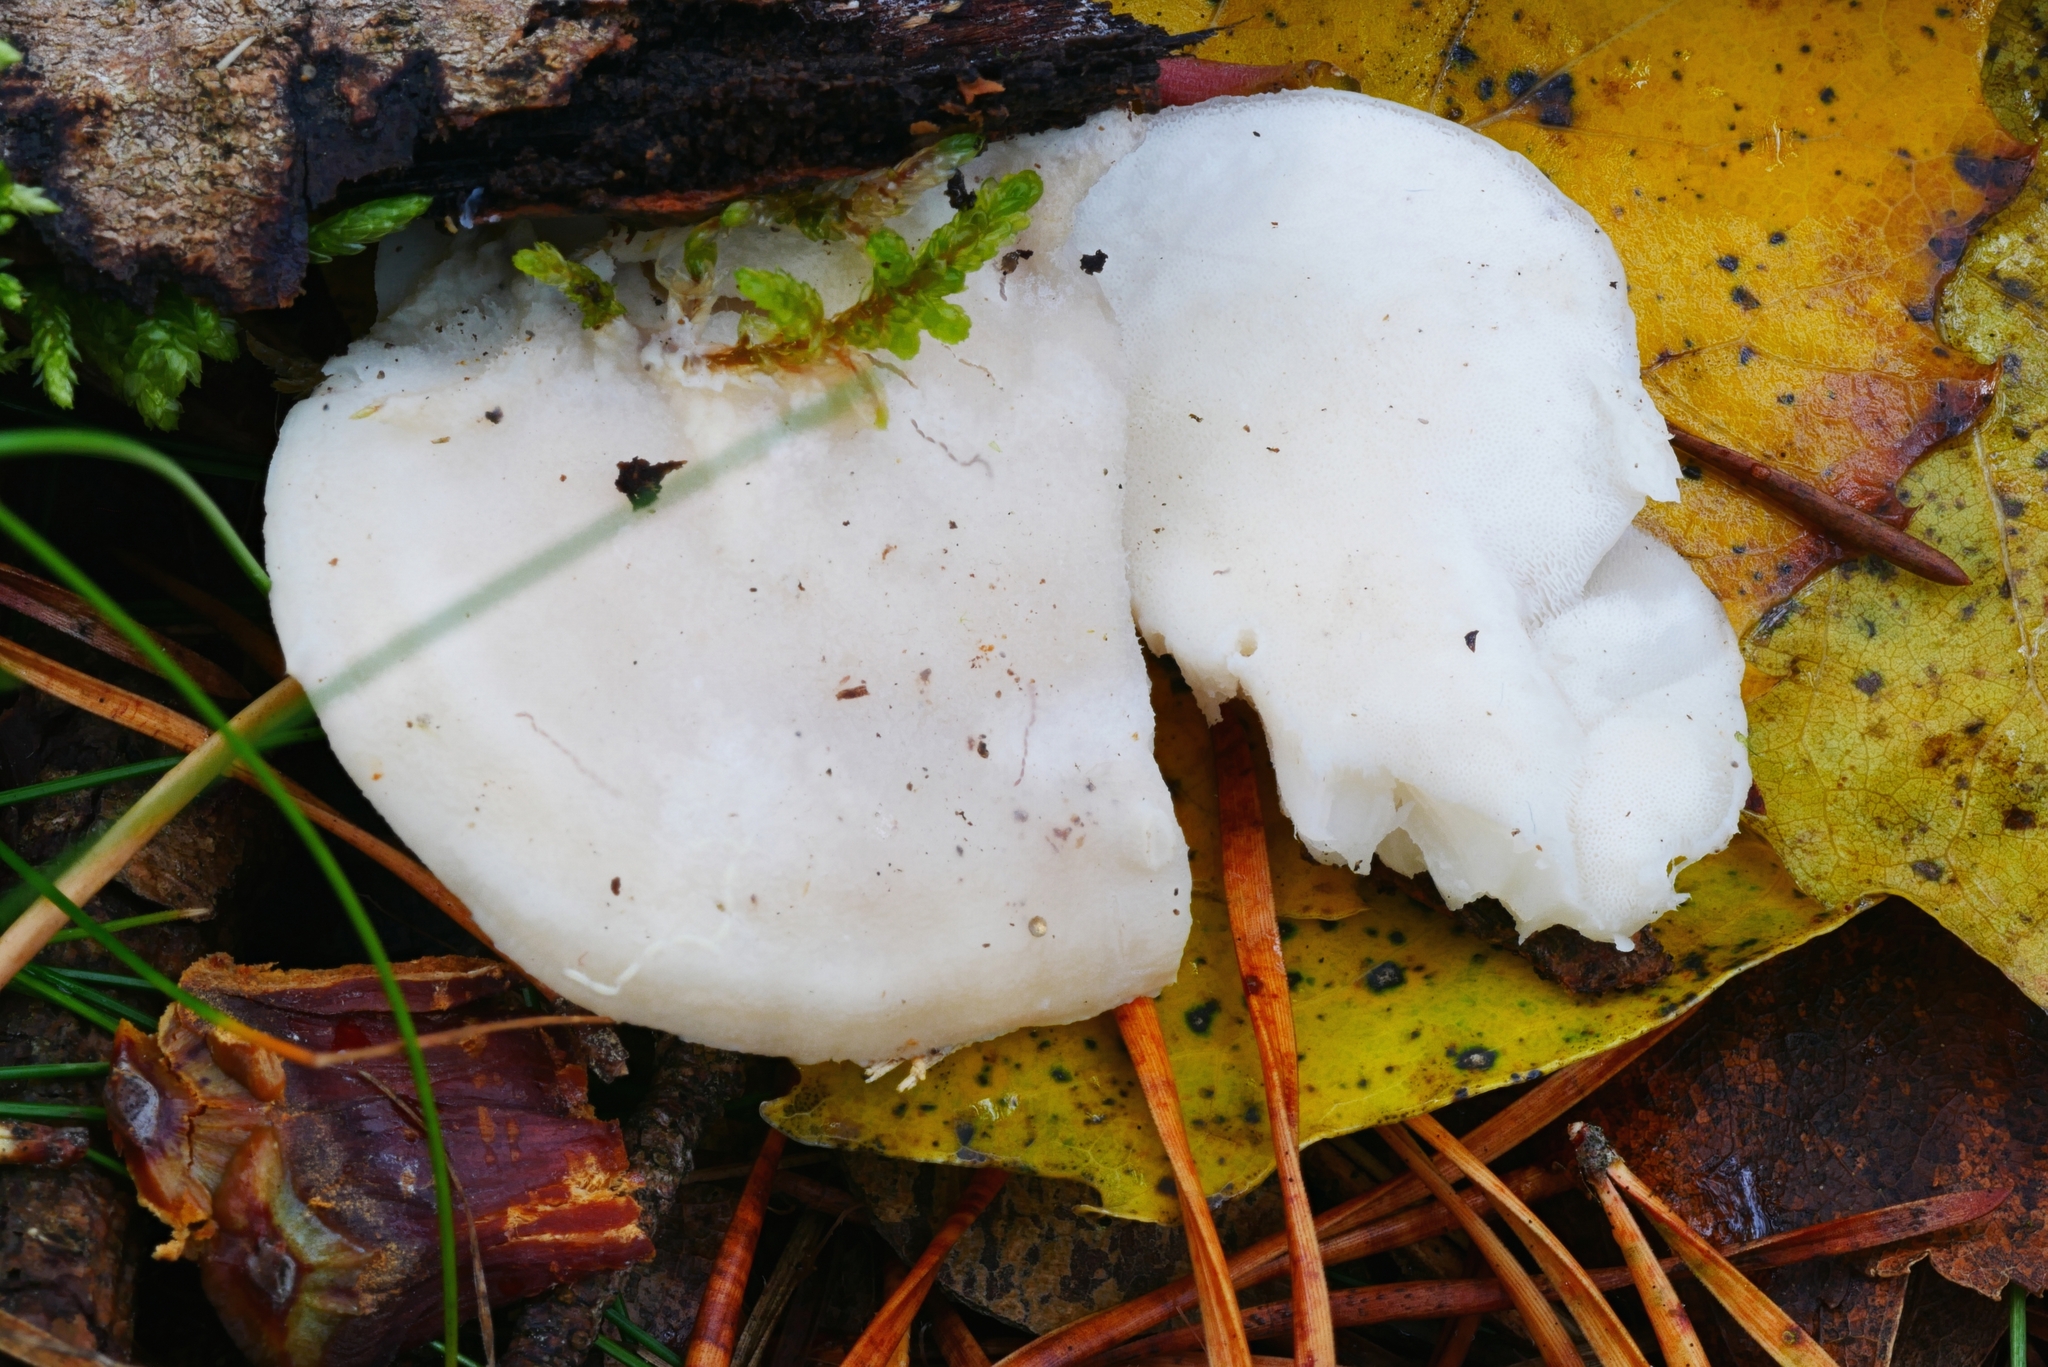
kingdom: Fungi
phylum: Basidiomycota
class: Agaricomycetes
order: Polyporales
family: Incrustoporiaceae
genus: Tyromyces
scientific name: Tyromyces galactinus
